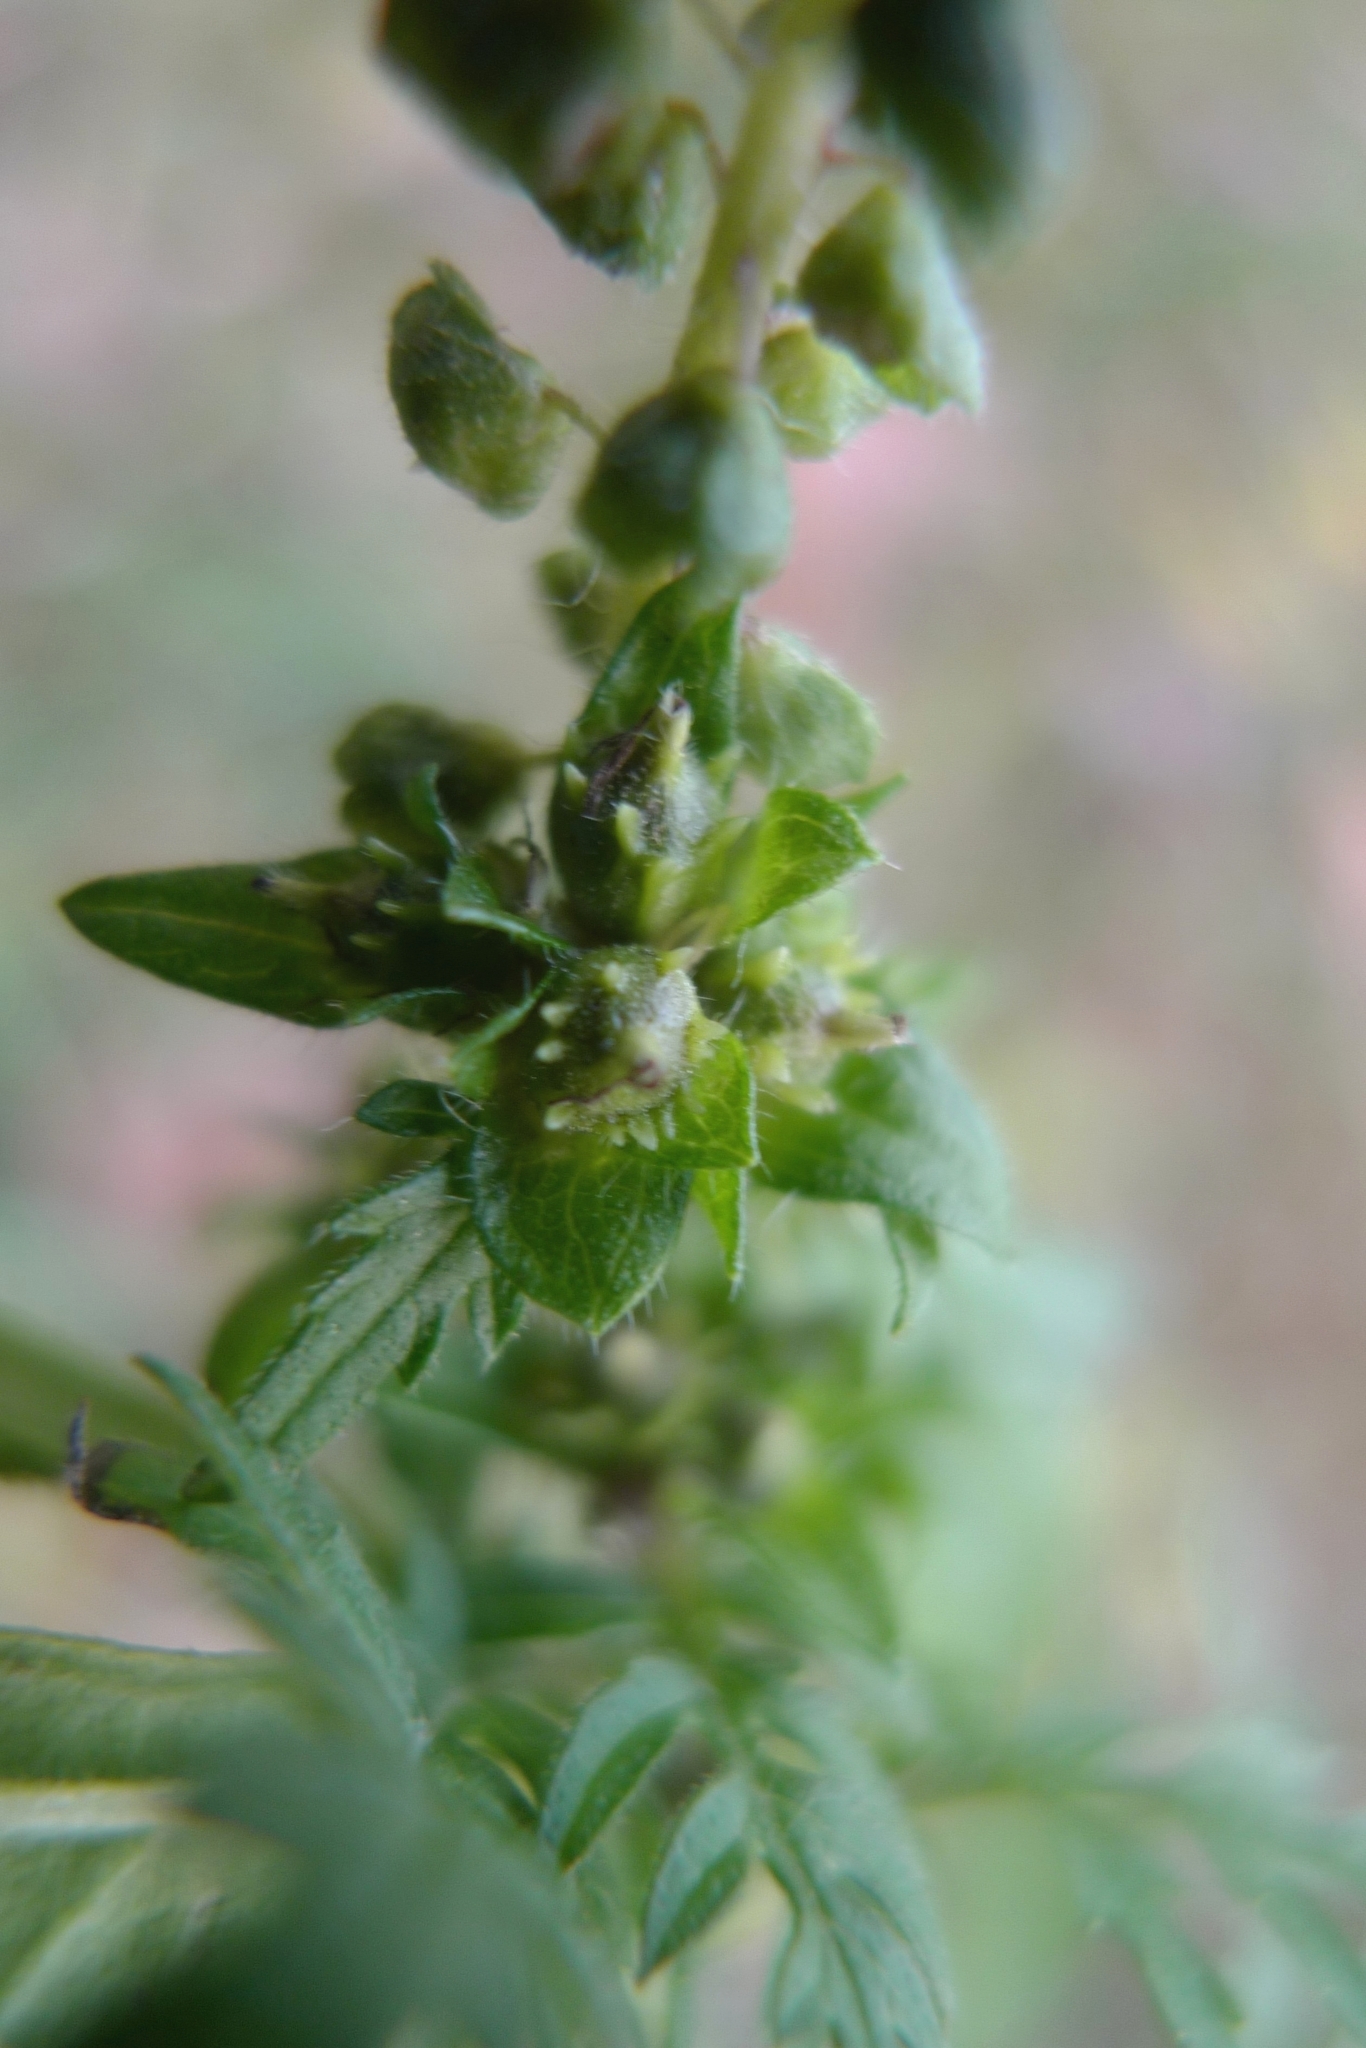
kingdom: Plantae
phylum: Tracheophyta
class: Magnoliopsida
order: Asterales
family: Asteraceae
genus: Ambrosia
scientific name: Ambrosia artemisiifolia
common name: Annual ragweed
